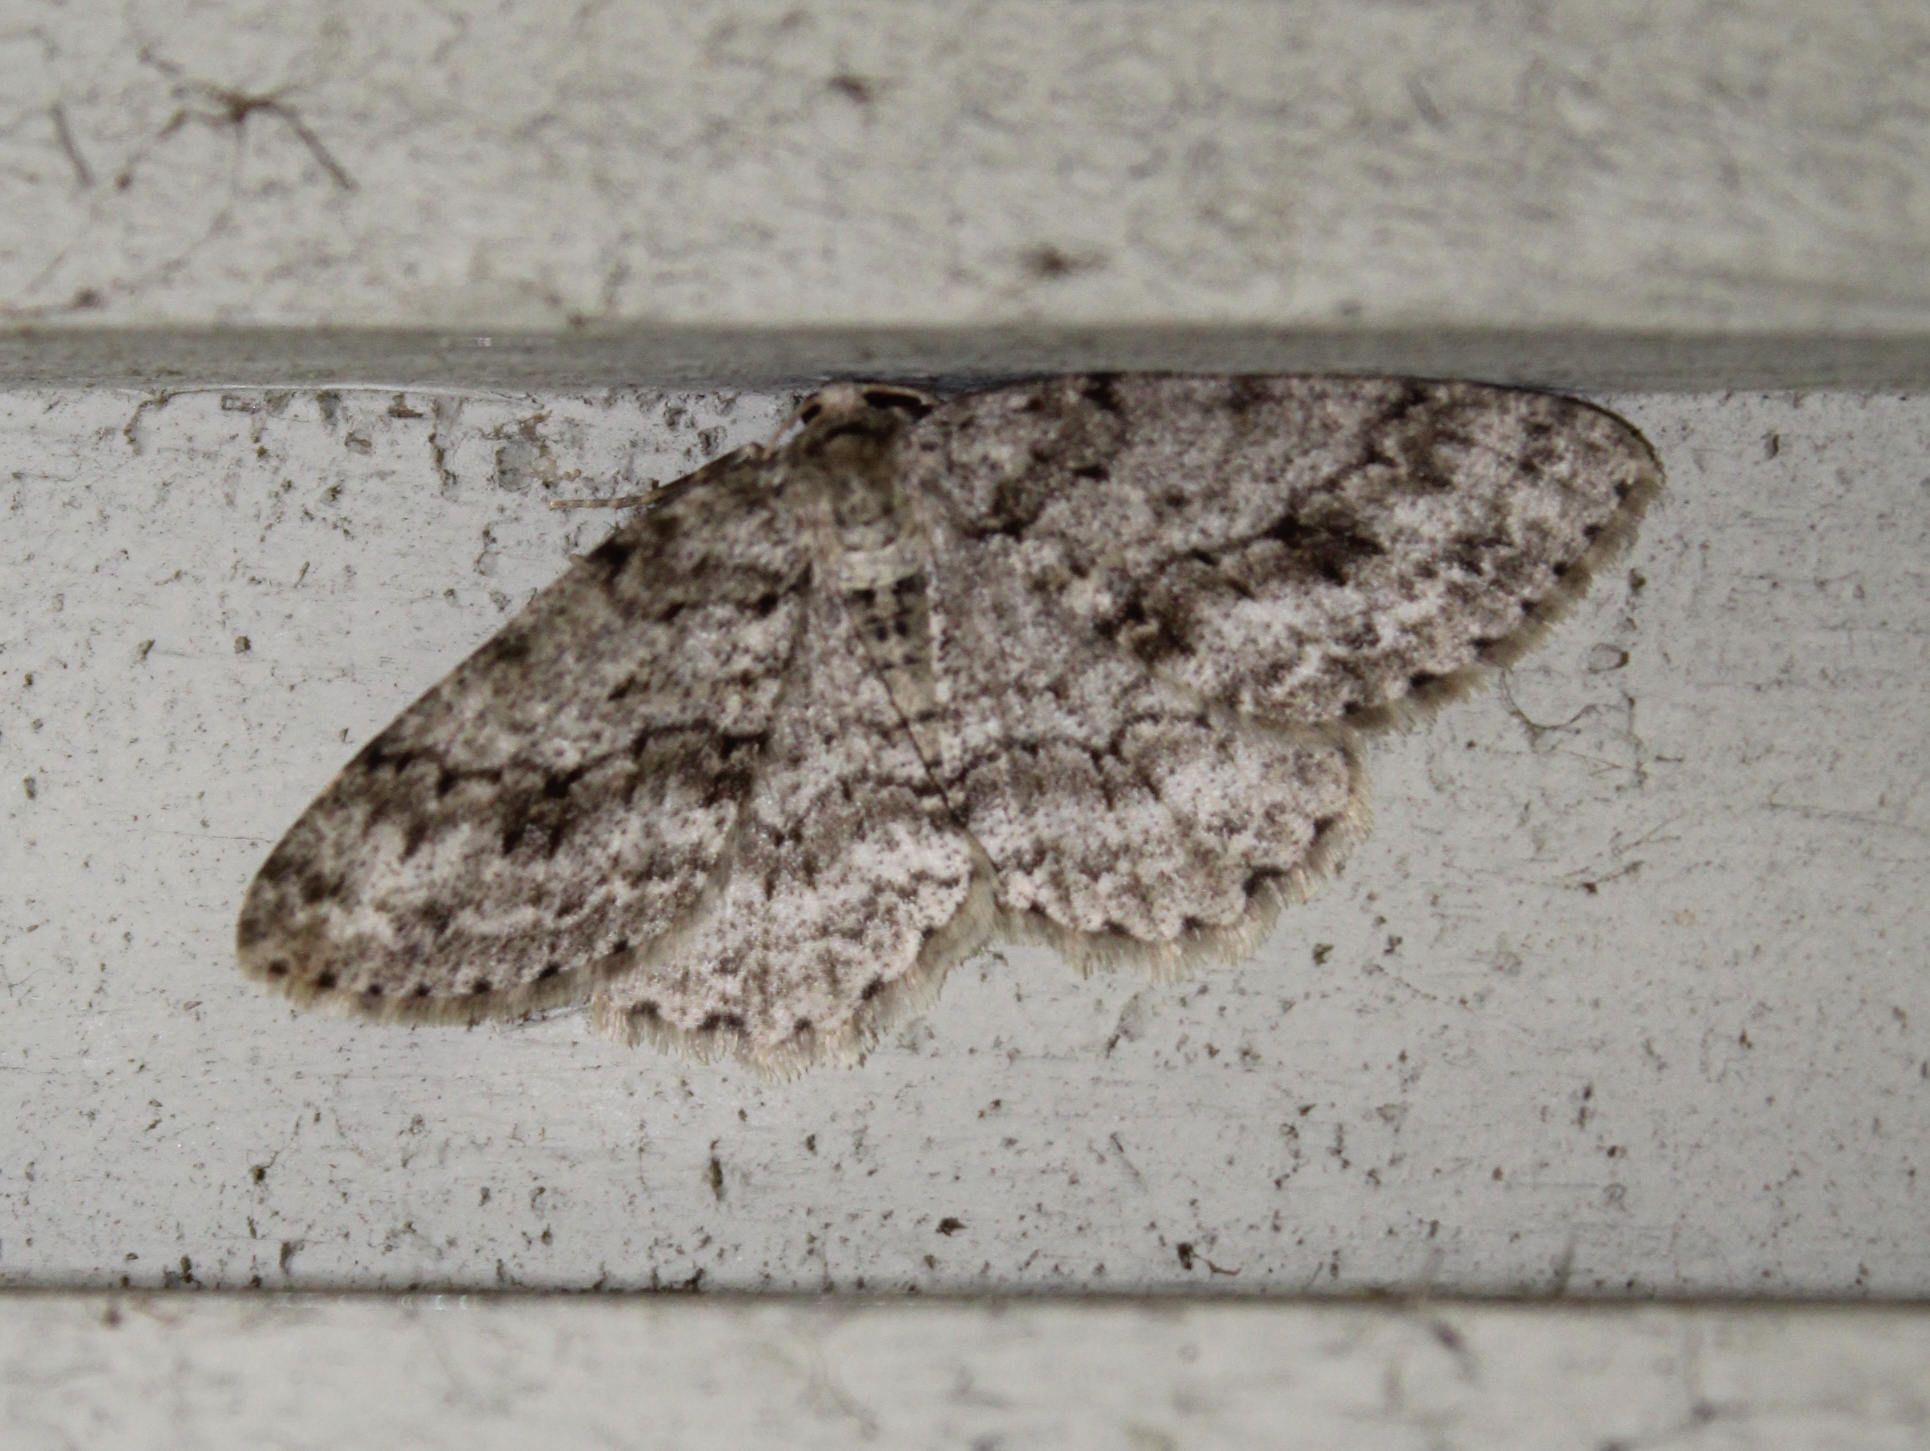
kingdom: Animalia
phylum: Arthropoda
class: Insecta
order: Lepidoptera
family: Geometridae
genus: Ectropis
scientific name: Ectropis crepuscularia
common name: Engrailed
